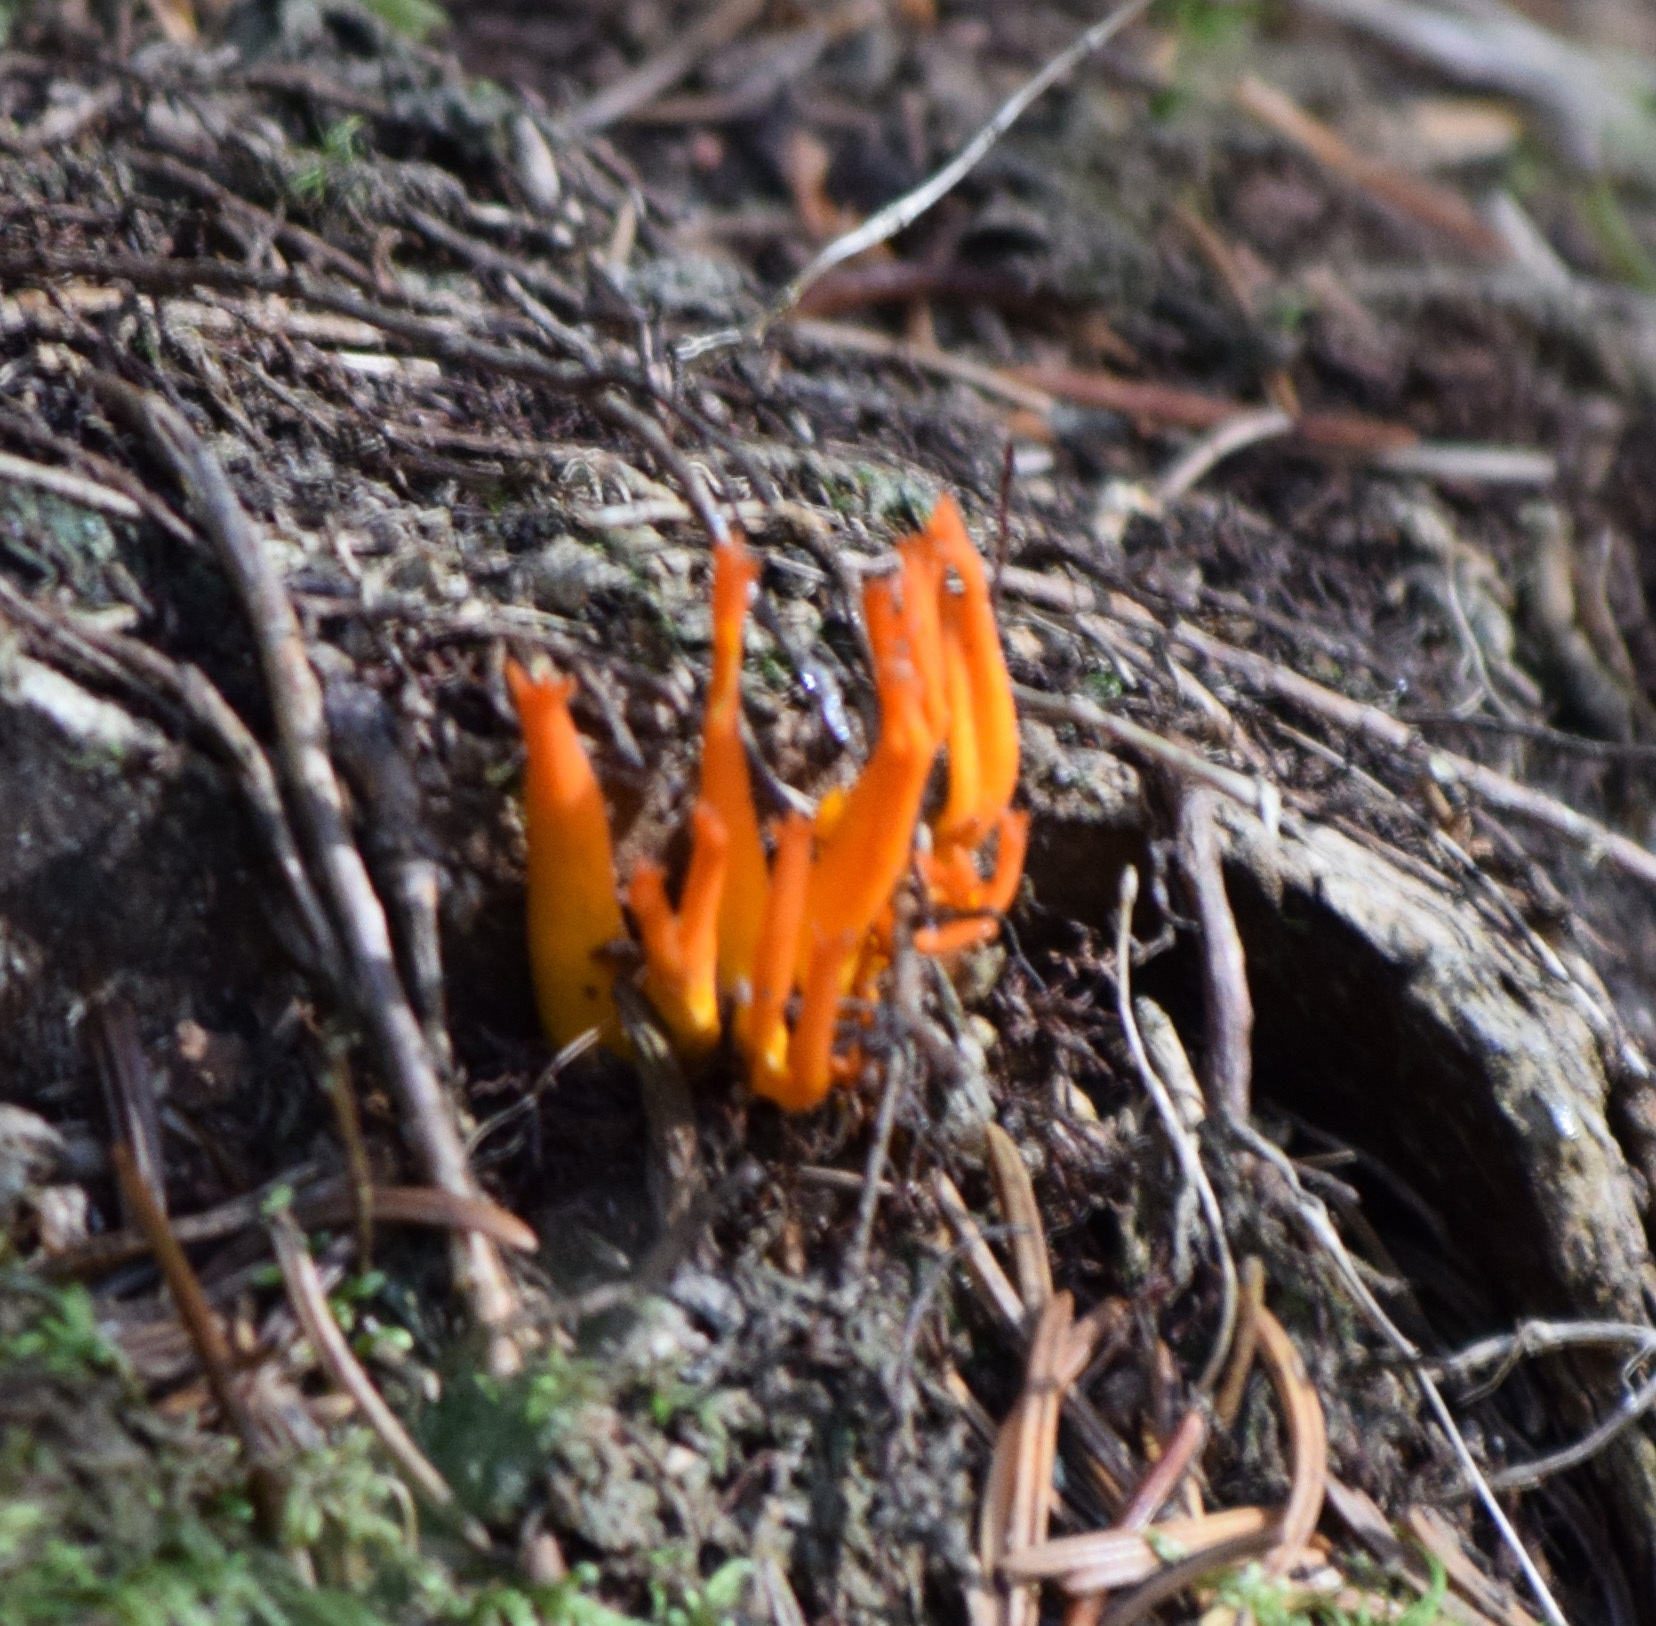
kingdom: Fungi
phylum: Basidiomycota
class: Dacrymycetes
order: Dacrymycetales
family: Dacrymycetaceae
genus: Calocera
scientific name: Calocera viscosa
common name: Yellow stagshorn
